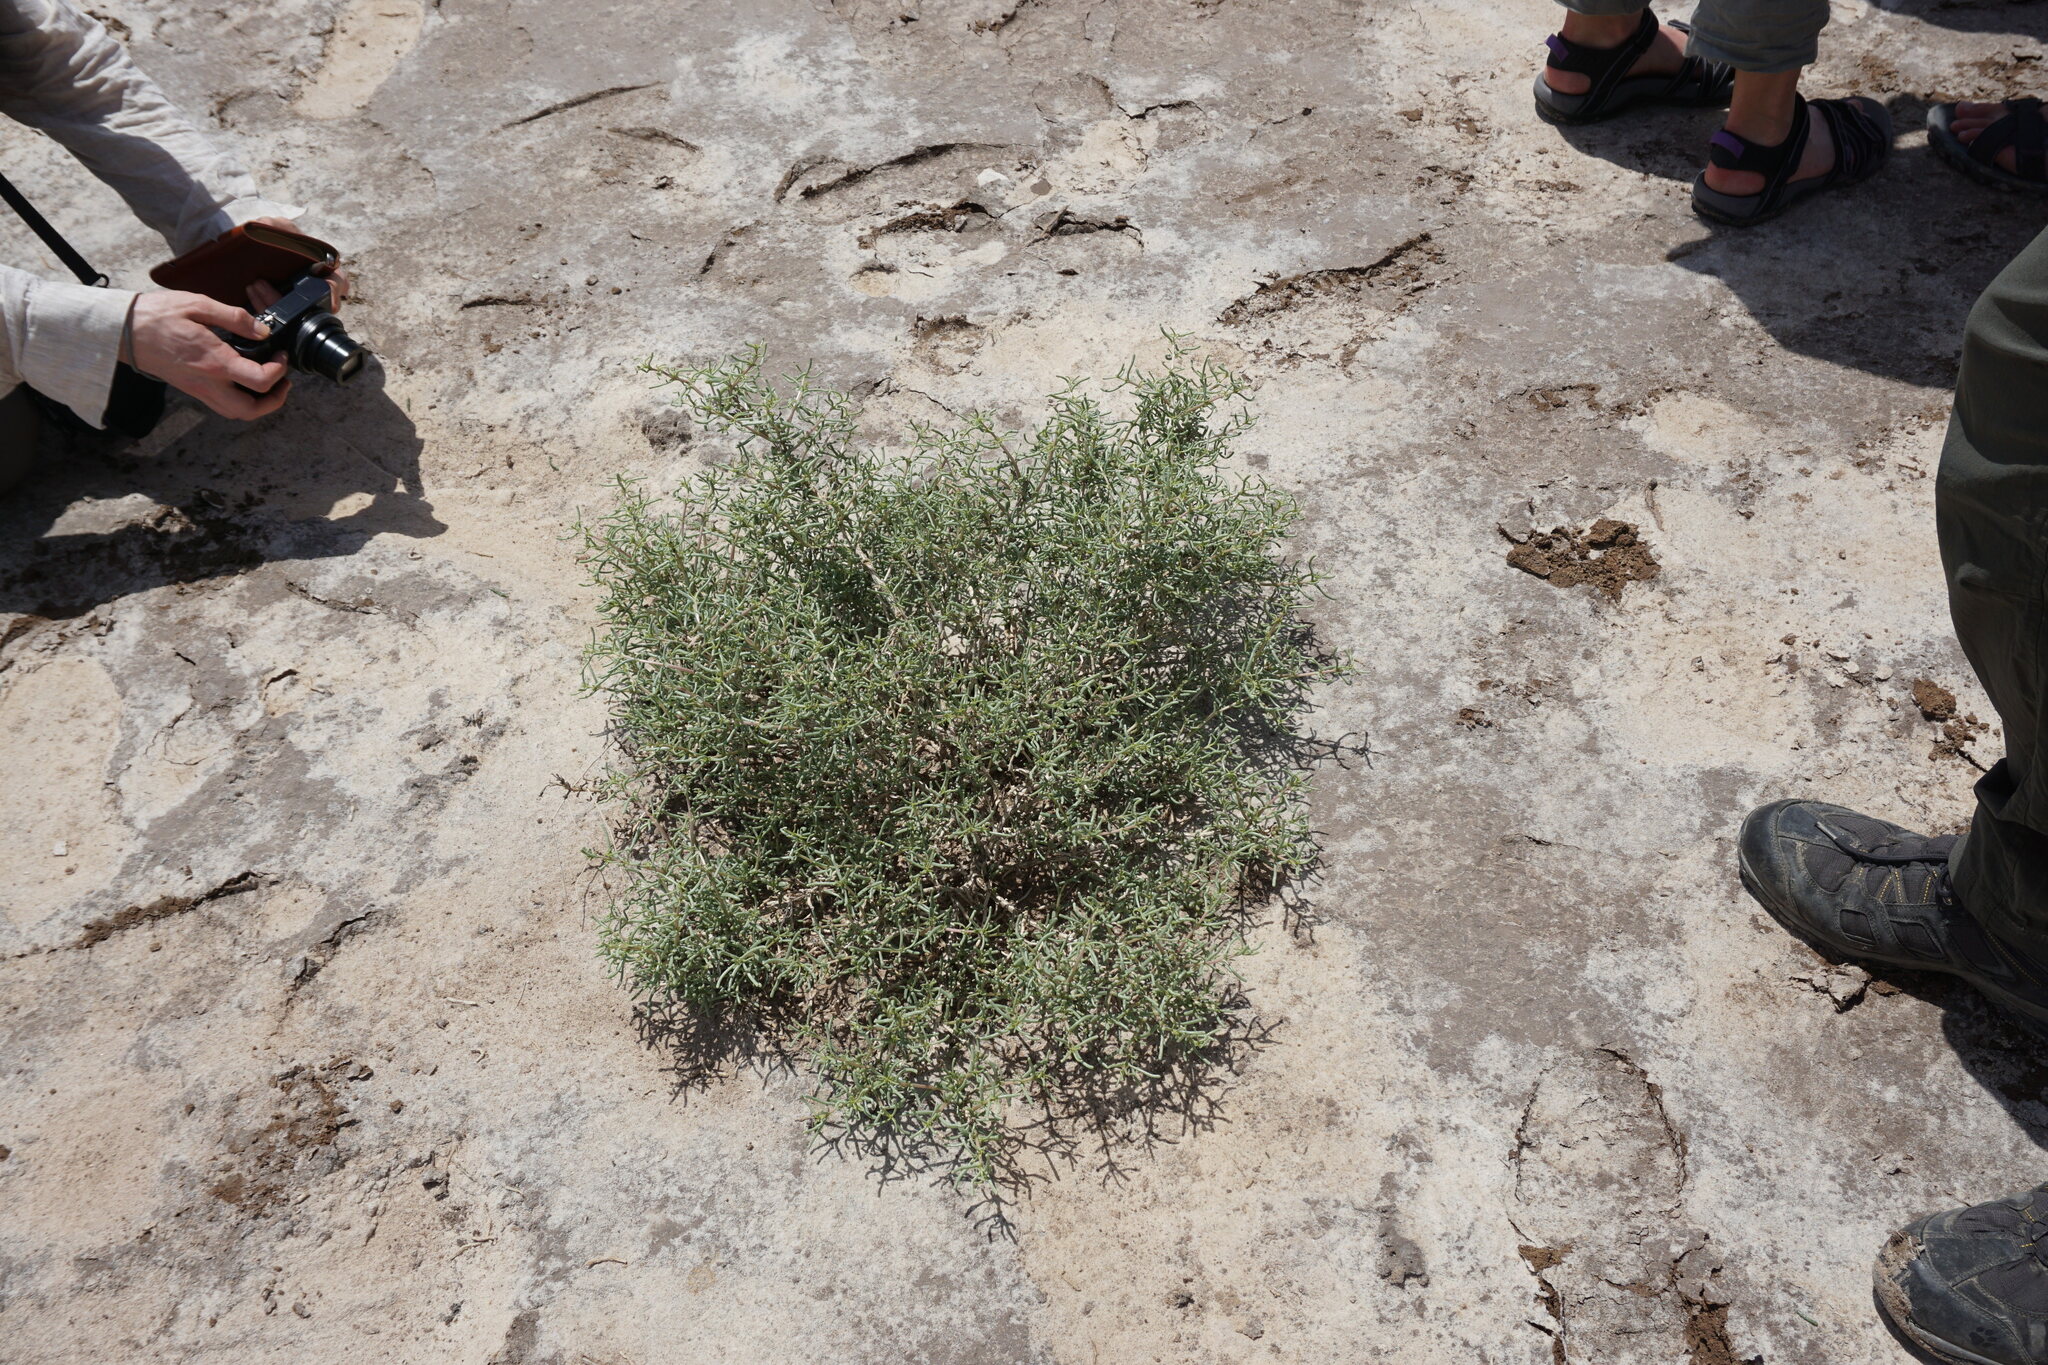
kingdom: Plantae
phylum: Tracheophyta
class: Magnoliopsida
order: Caryophyllales
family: Amaranthaceae
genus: Soda
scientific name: Soda
